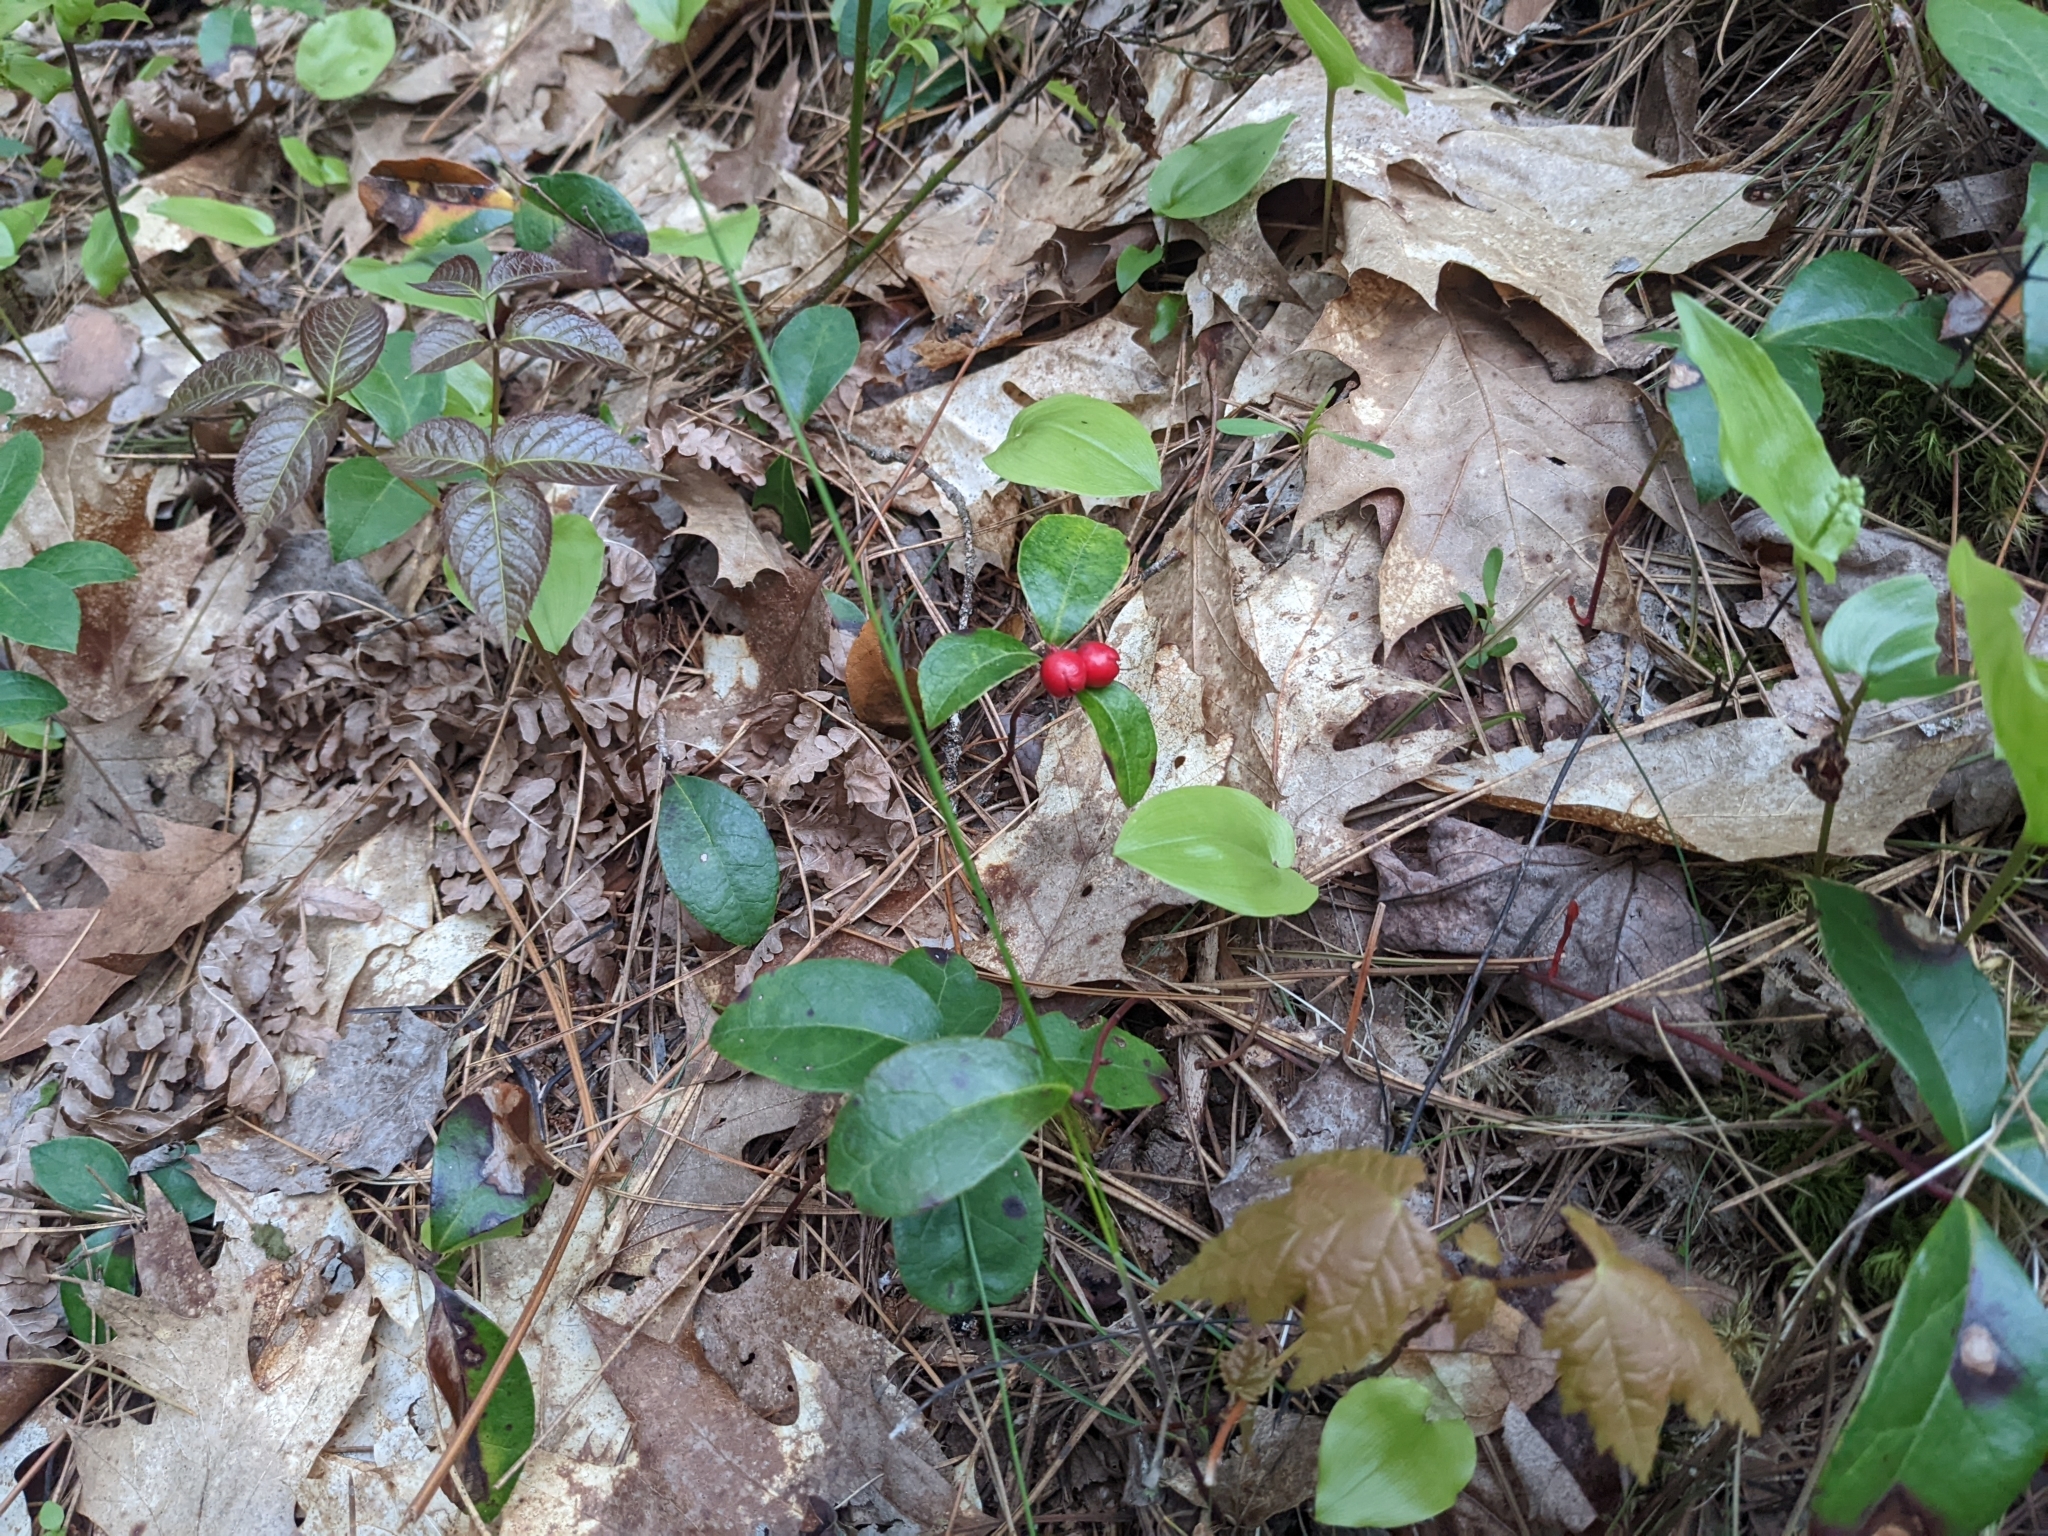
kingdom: Plantae
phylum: Tracheophyta
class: Magnoliopsida
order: Ericales
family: Ericaceae
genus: Gaultheria
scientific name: Gaultheria procumbens
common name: Checkerberry
